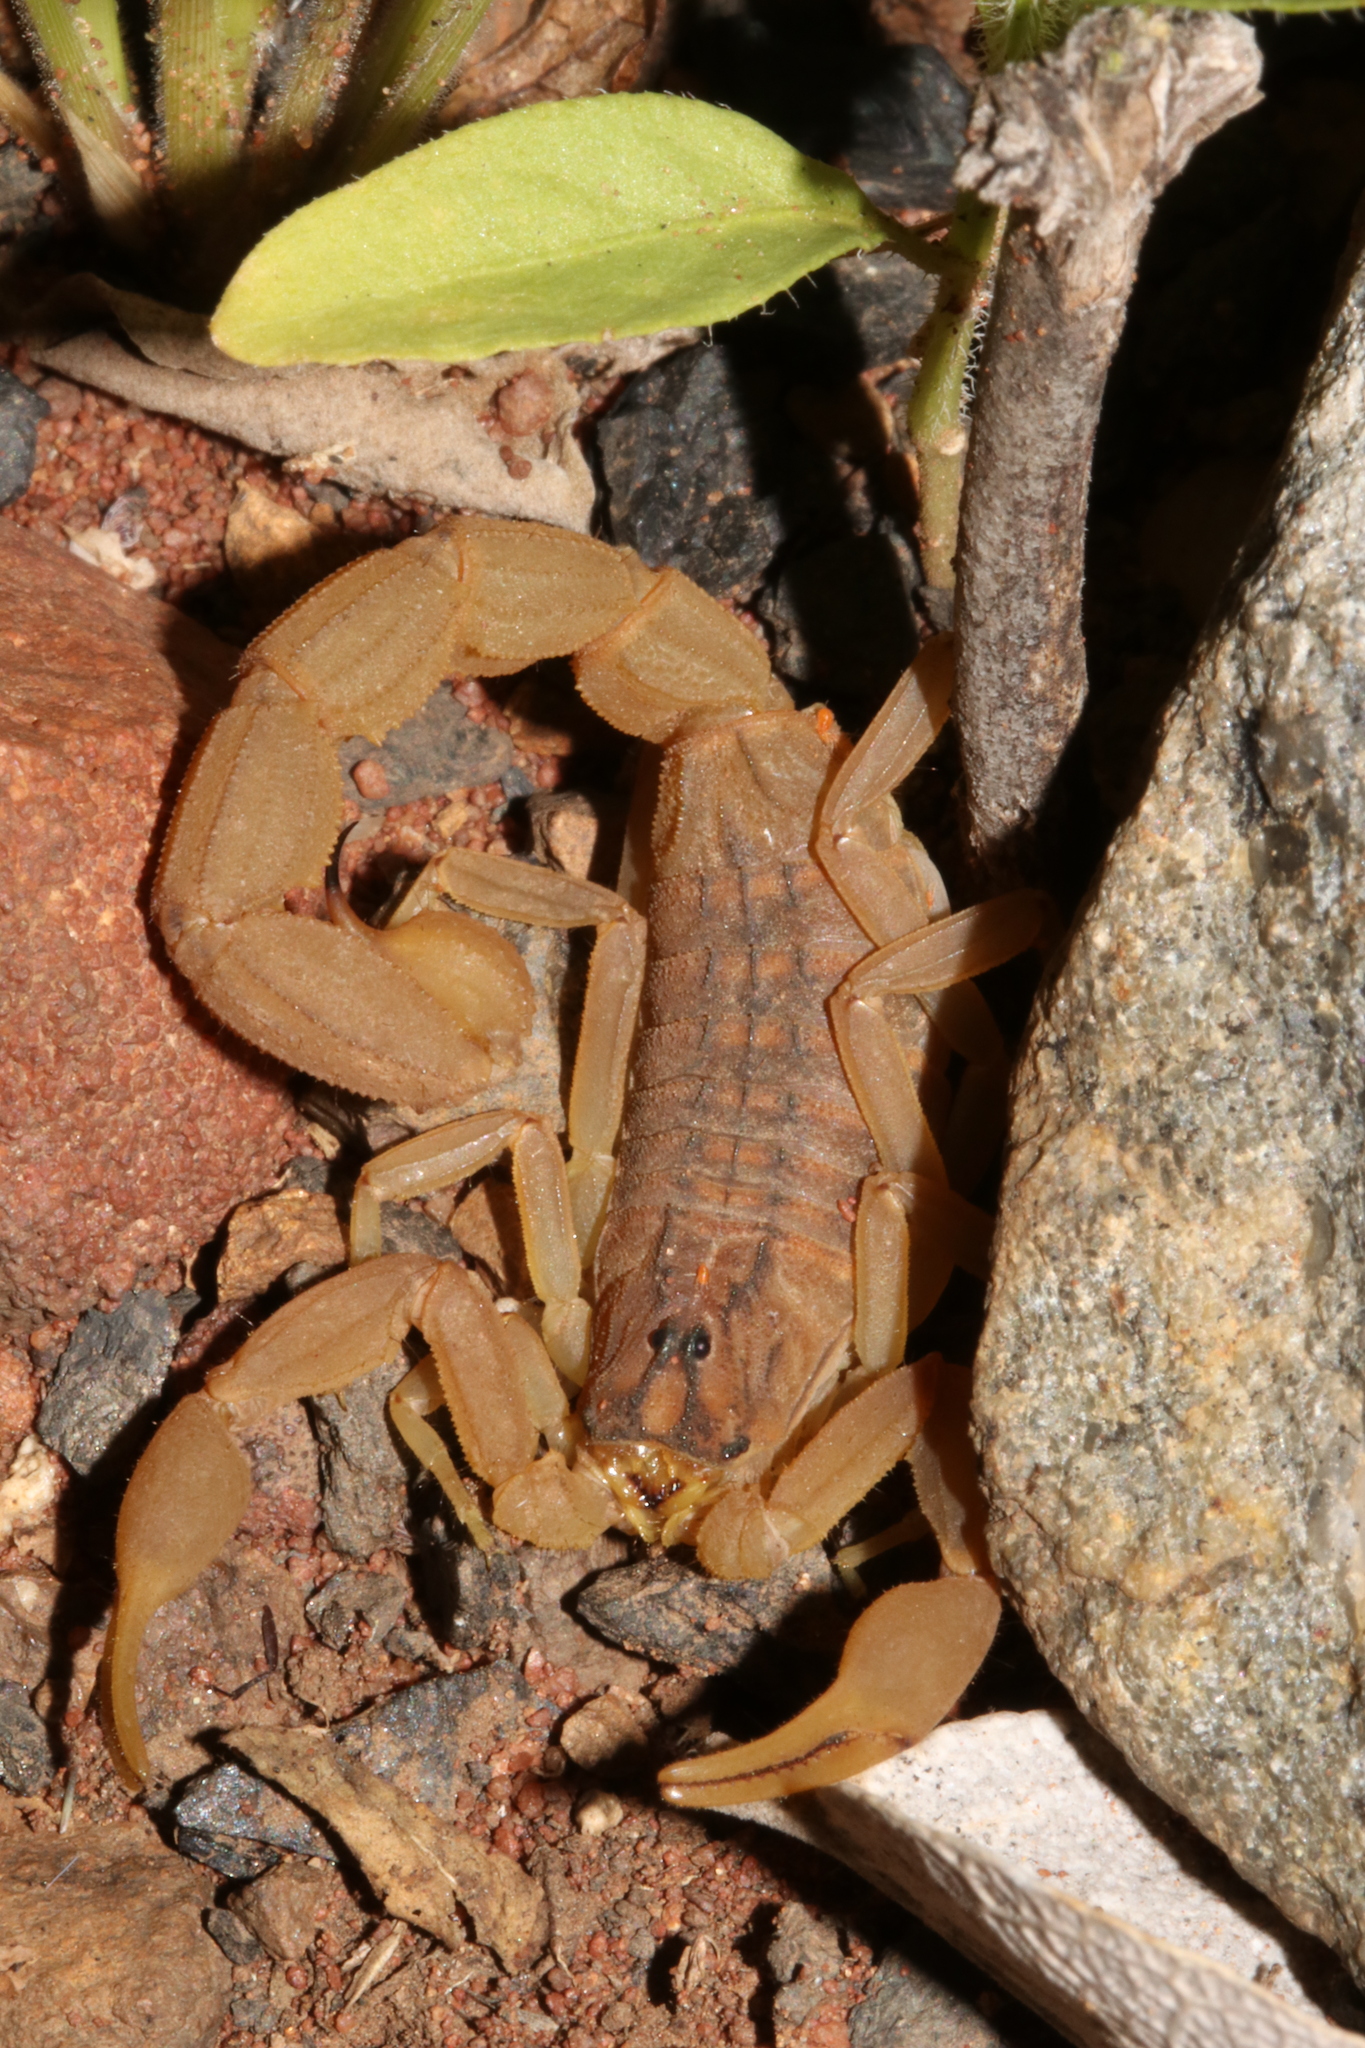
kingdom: Animalia
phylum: Arthropoda
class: Arachnida
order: Scorpiones
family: Buthidae
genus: Hottentotta
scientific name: Hottentotta trilineatus
